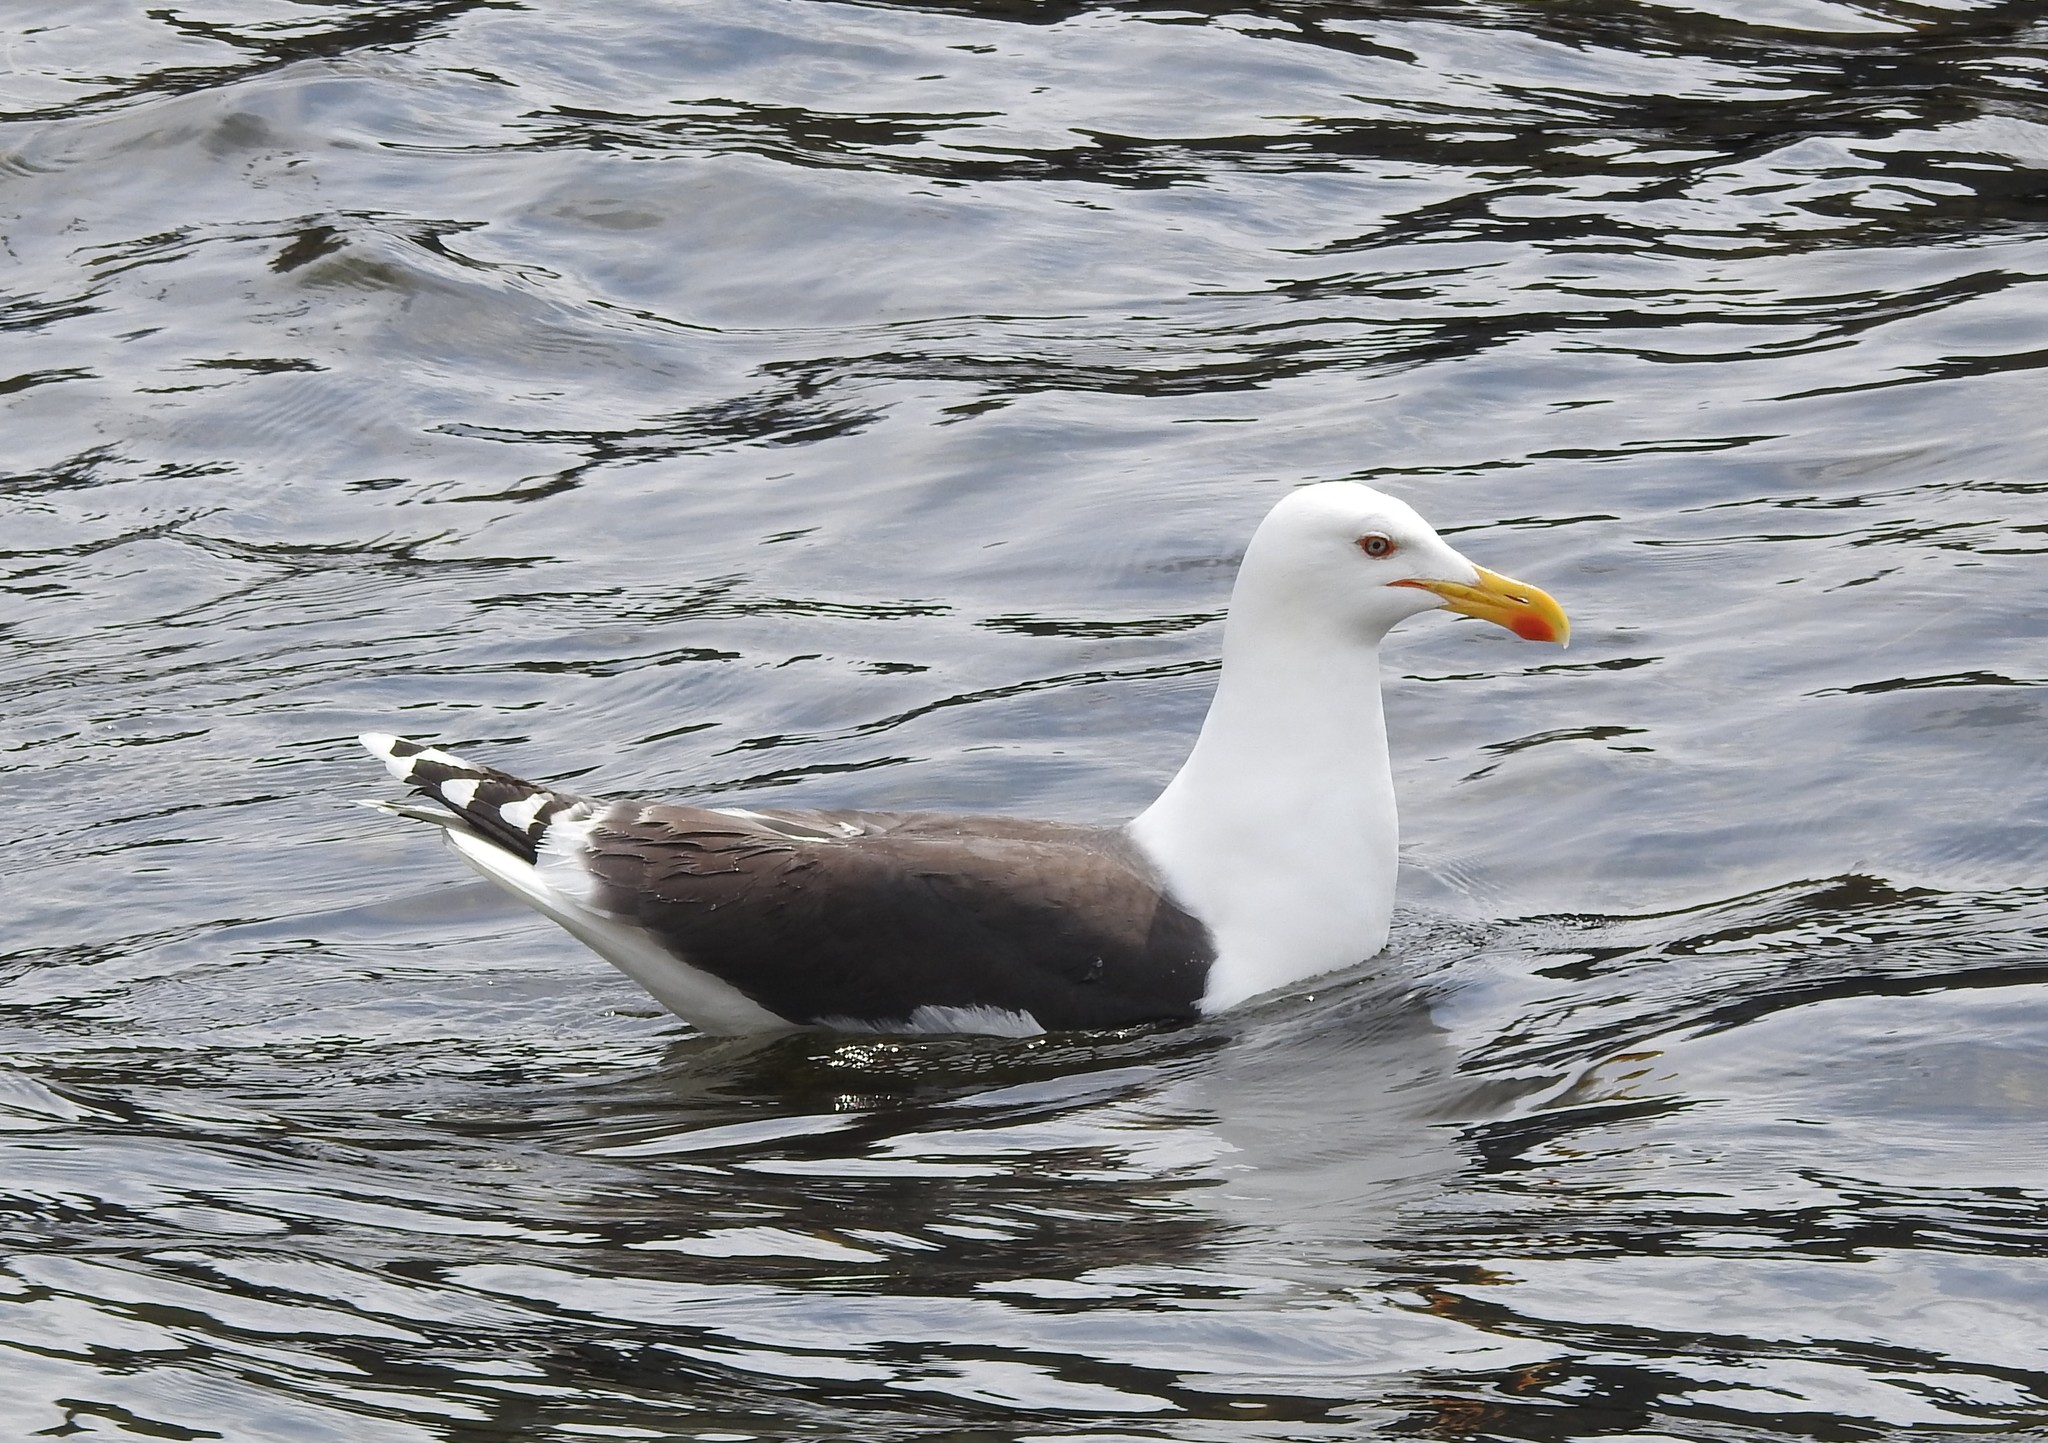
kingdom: Animalia
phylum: Chordata
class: Aves
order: Charadriiformes
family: Laridae
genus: Larus
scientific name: Larus fuscus
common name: Lesser black-backed gull
